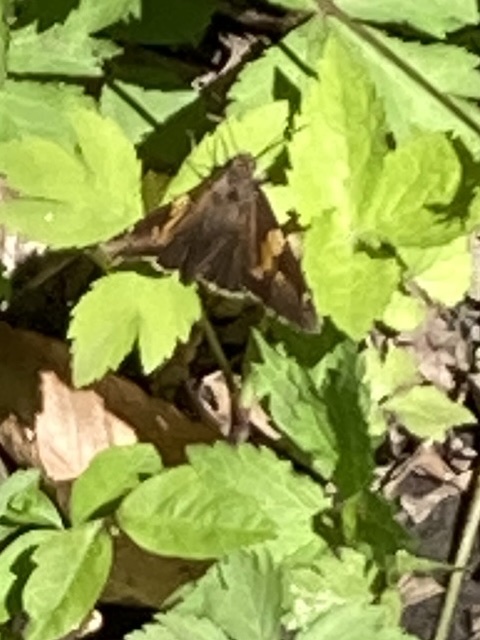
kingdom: Animalia
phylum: Arthropoda
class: Insecta
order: Lepidoptera
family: Hesperiidae
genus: Epargyreus
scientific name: Epargyreus clarus
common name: Silver-spotted skipper
